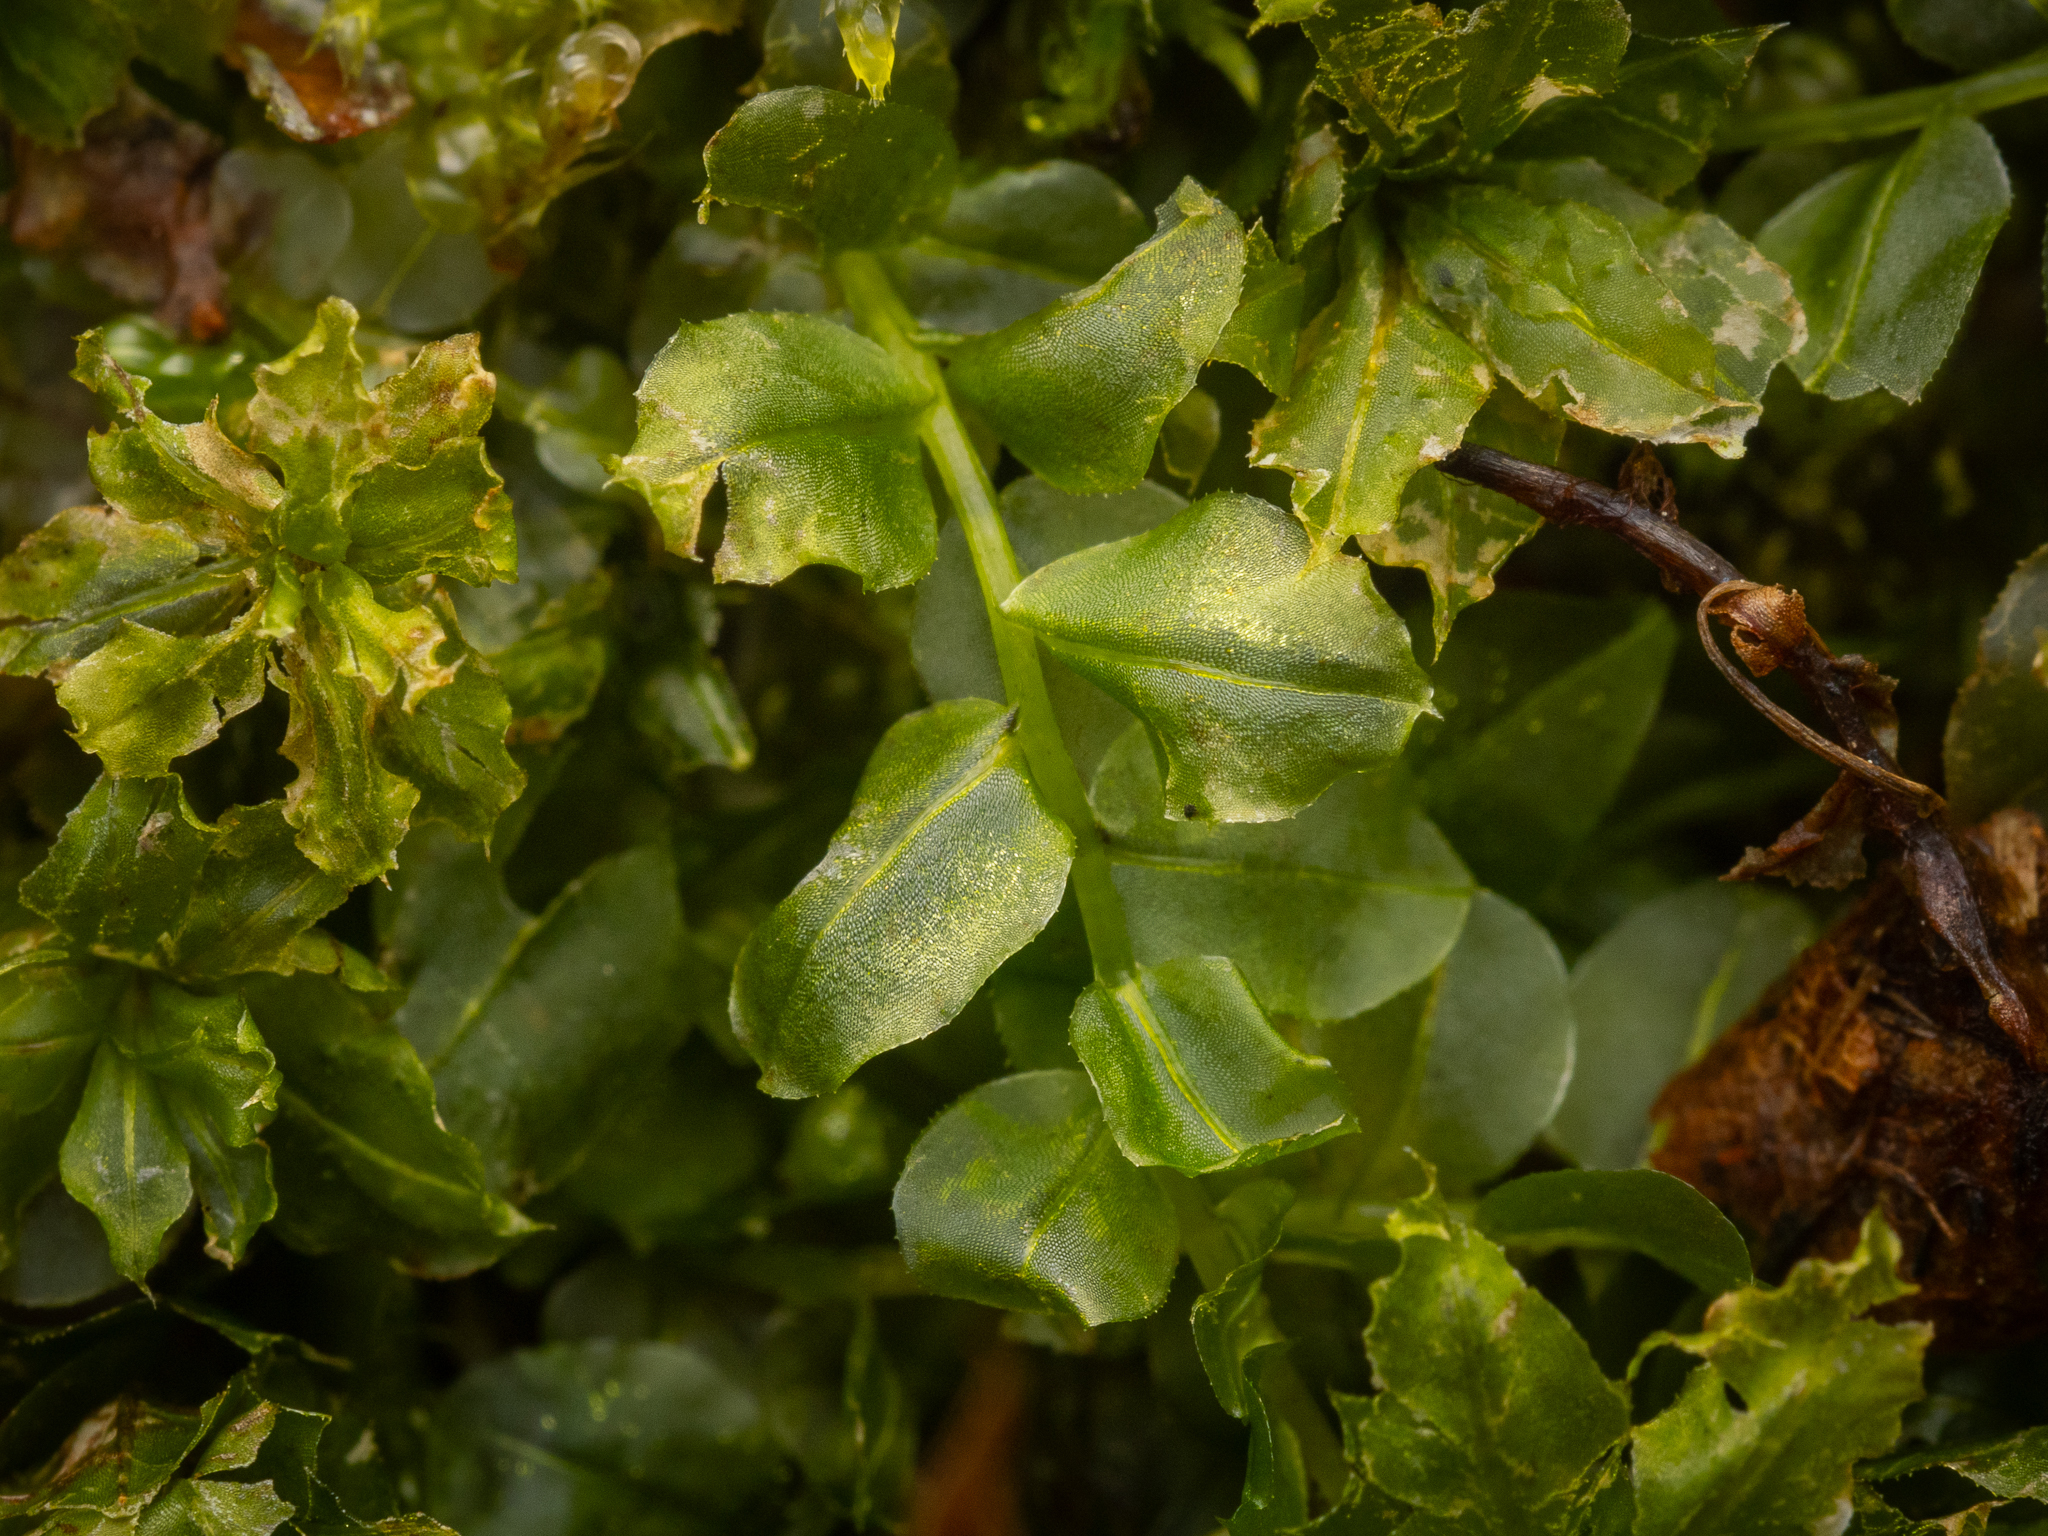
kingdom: Plantae
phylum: Bryophyta
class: Bryopsida
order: Bryales
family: Mniaceae
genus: Plagiomnium
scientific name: Plagiomnium cuspidatum
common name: Woodsy leafy moss
